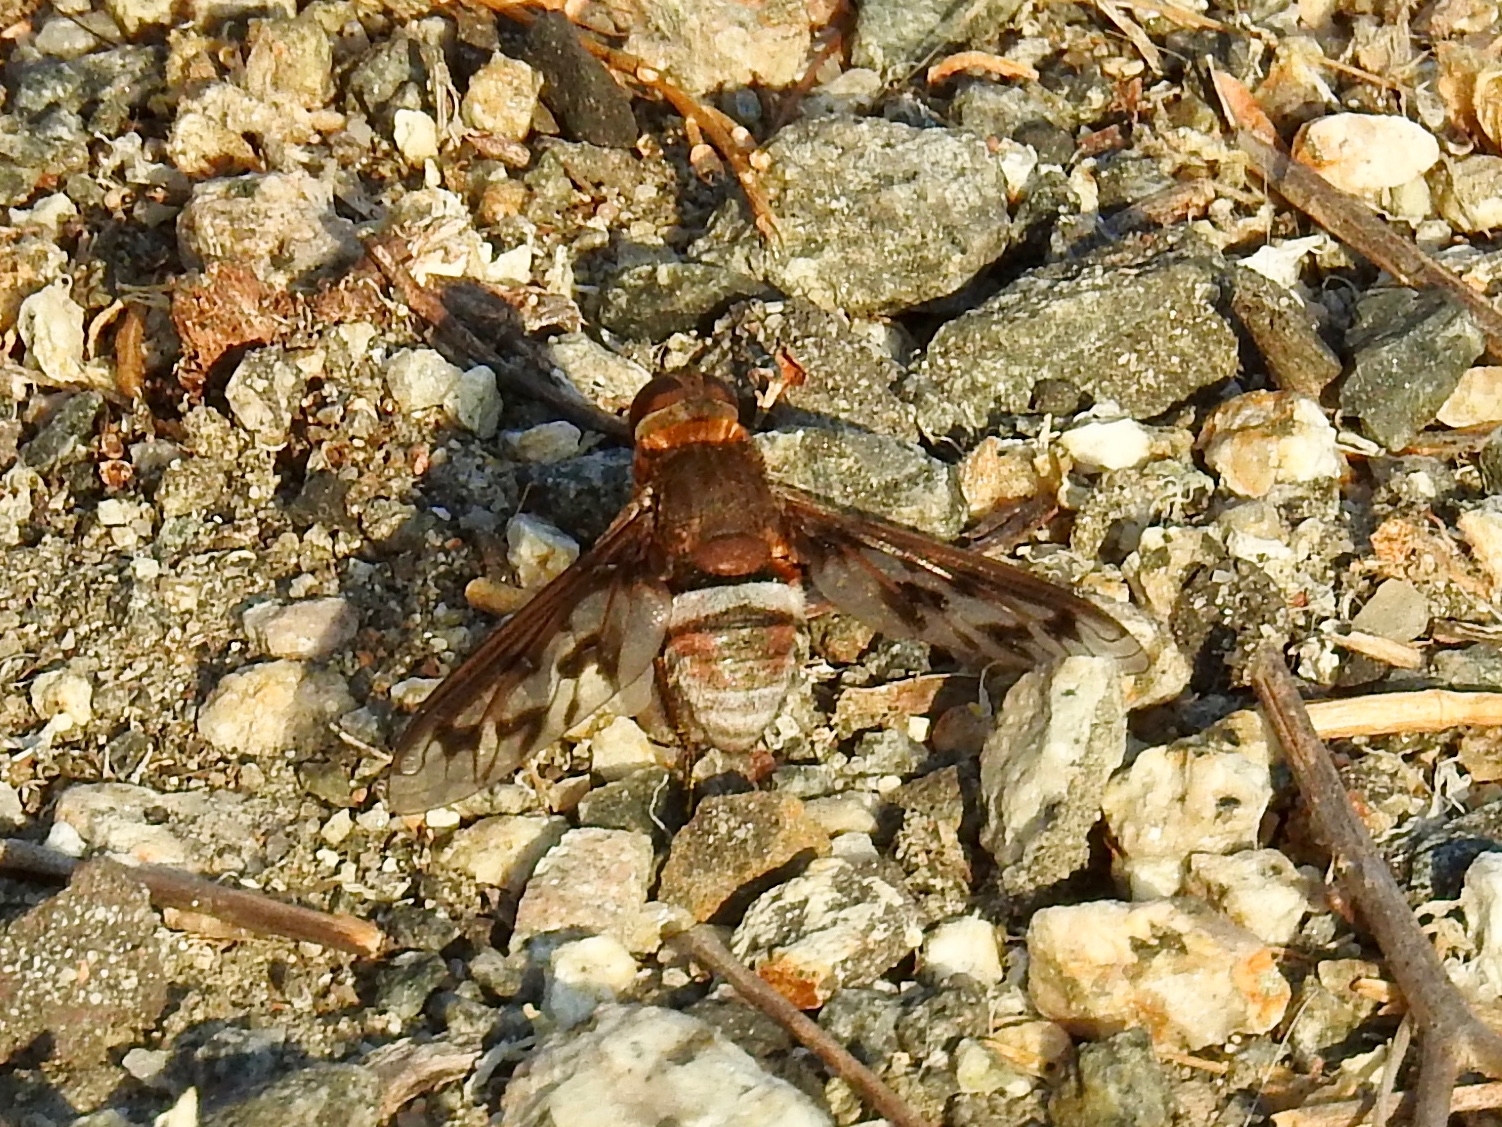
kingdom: Animalia
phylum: Arthropoda
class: Insecta
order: Diptera
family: Bombyliidae
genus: Nyia
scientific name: Nyia gazophylax
